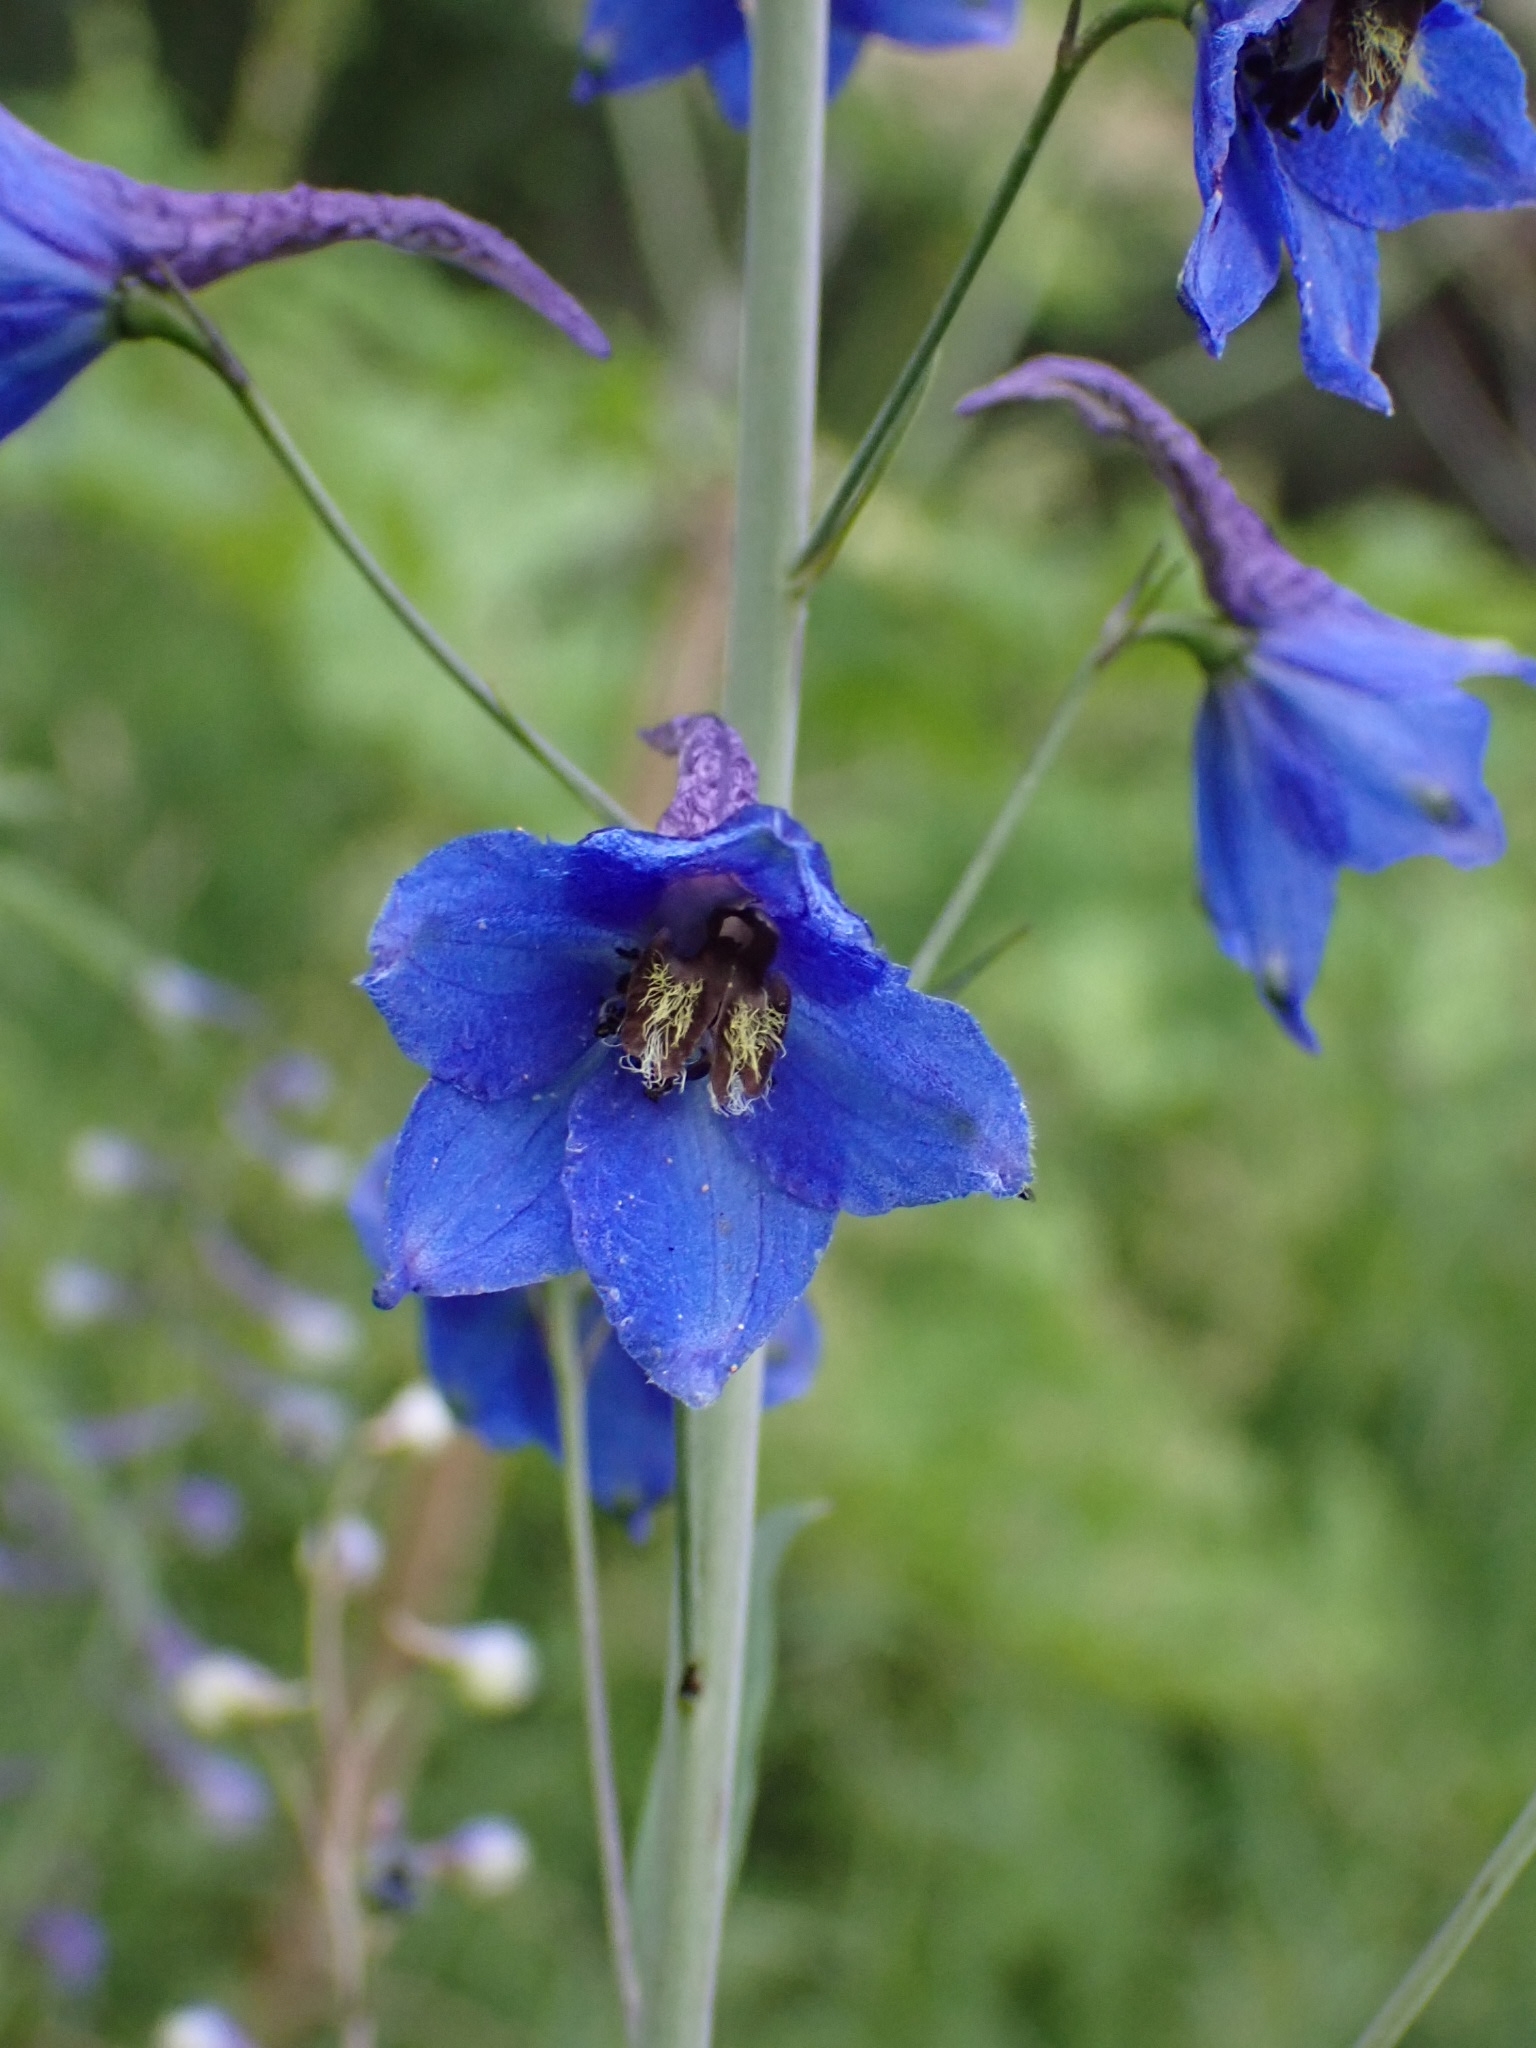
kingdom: Plantae
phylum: Tracheophyta
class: Magnoliopsida
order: Ranunculales
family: Ranunculaceae
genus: Delphinium
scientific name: Delphinium elatum
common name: Candle larkspur
